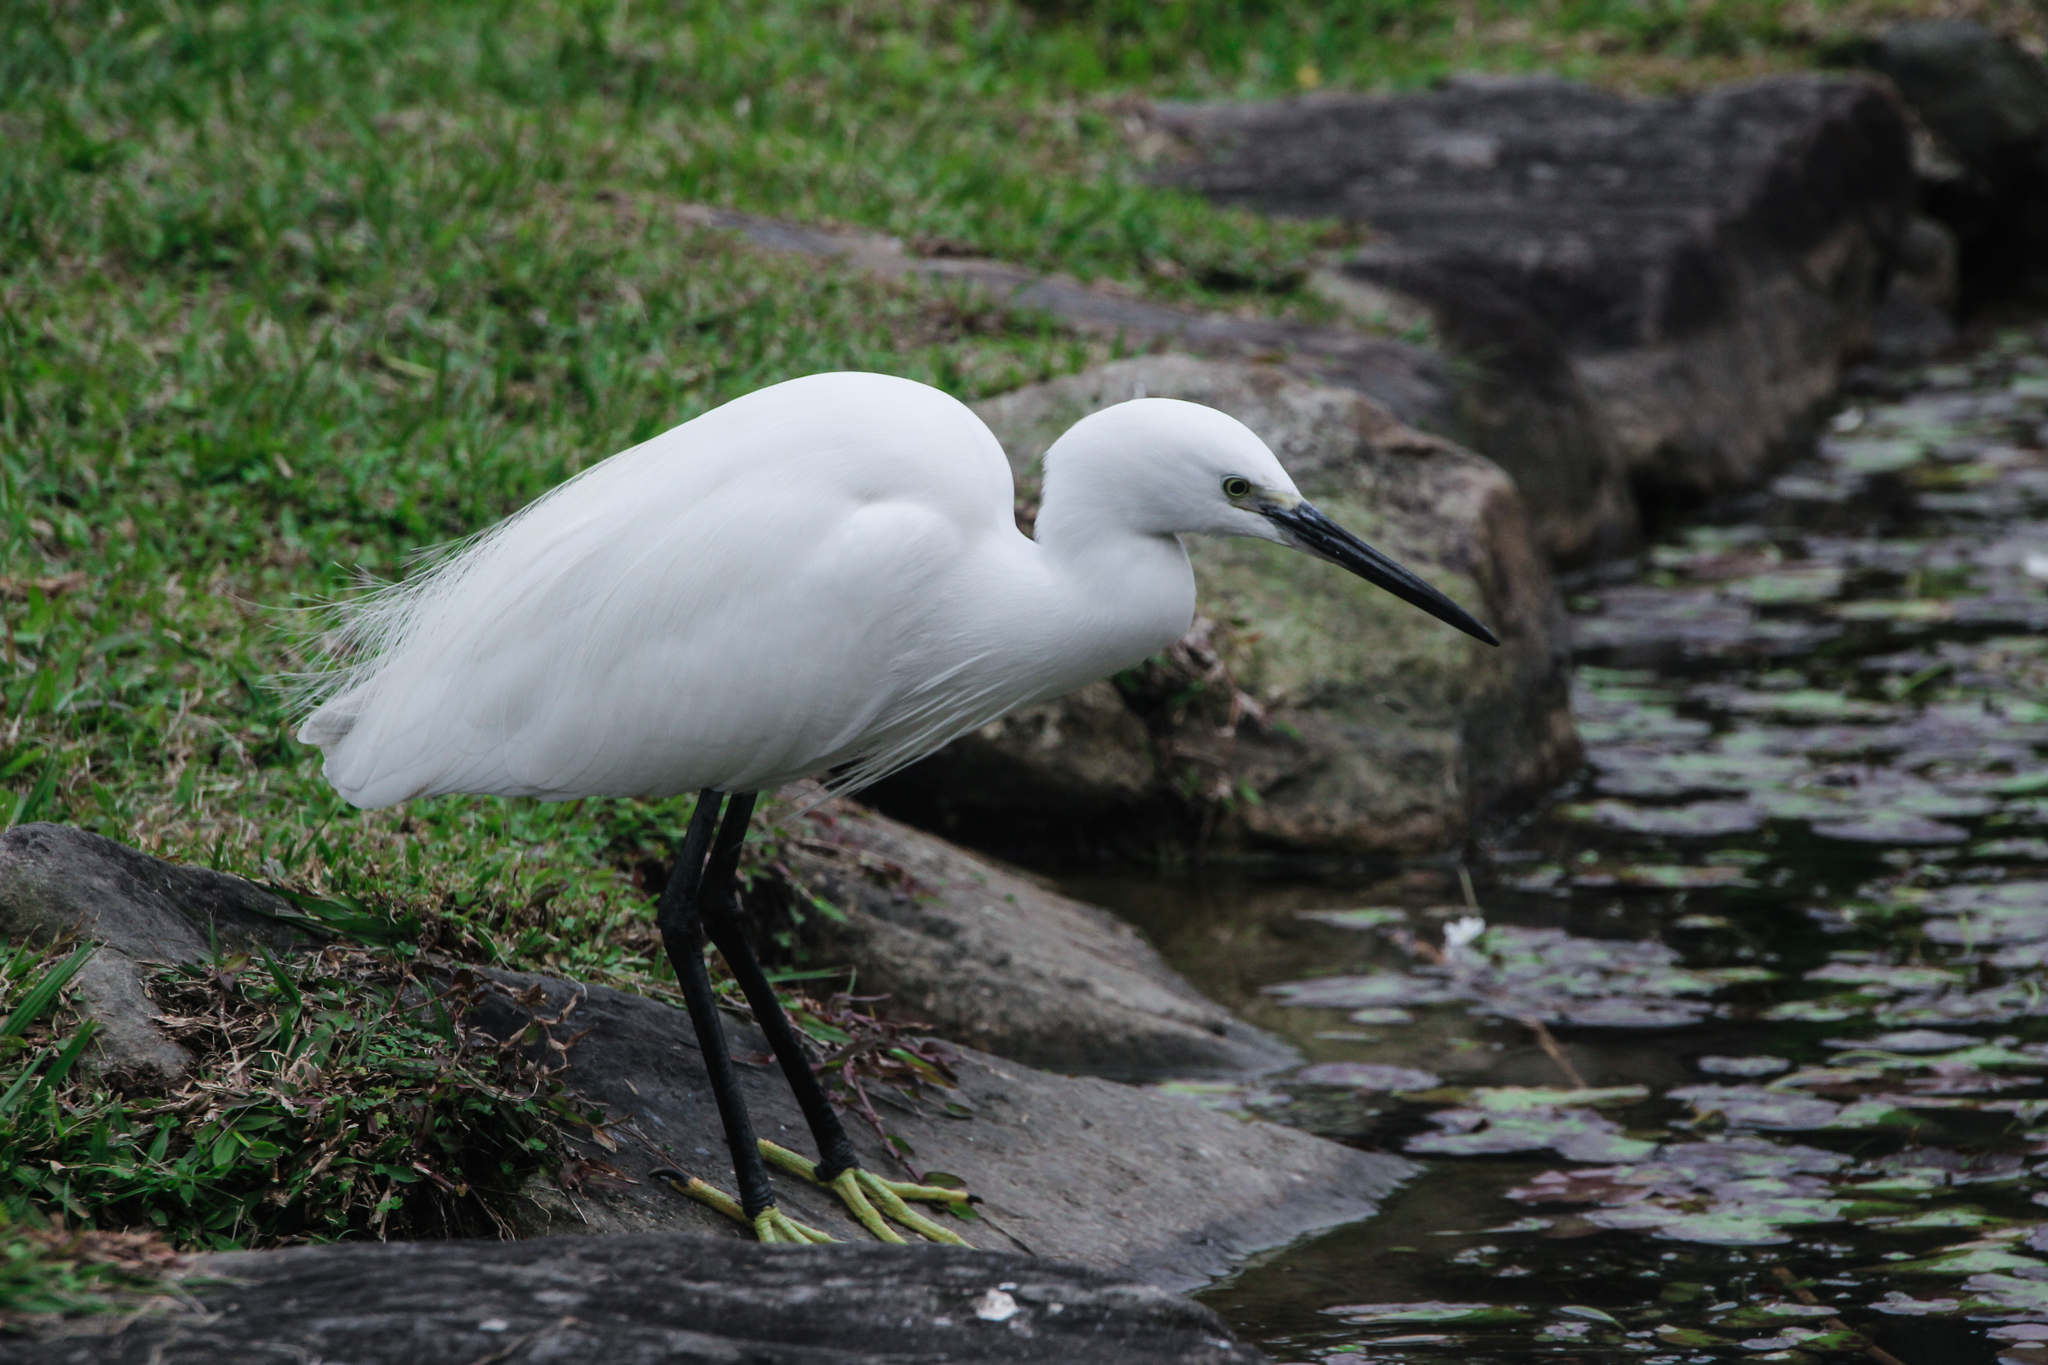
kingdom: Animalia
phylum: Chordata
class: Aves
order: Pelecaniformes
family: Ardeidae
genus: Egretta
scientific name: Egretta garzetta
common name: Little egret
